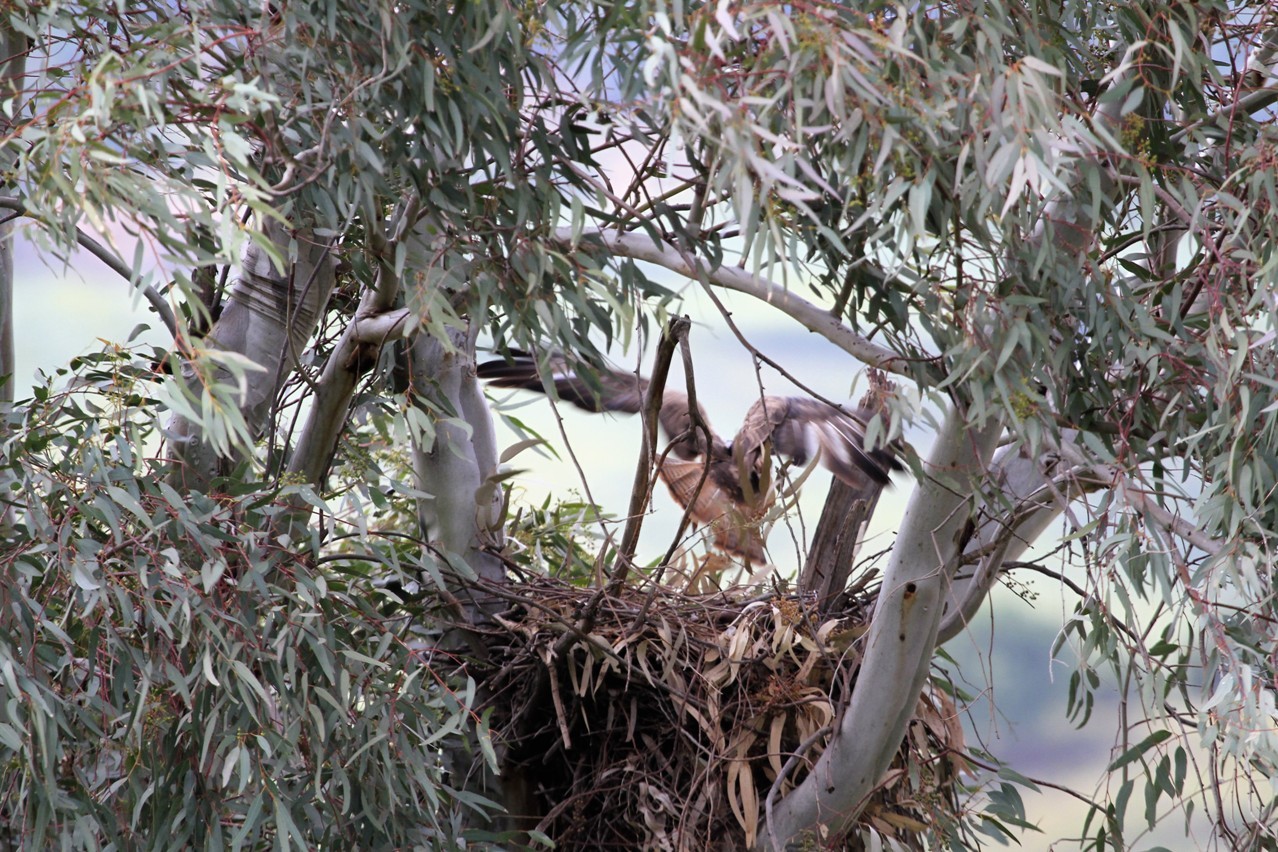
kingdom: Animalia
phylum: Chordata
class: Aves
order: Accipitriformes
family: Accipitridae
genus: Buteo
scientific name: Buteo rufinus
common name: Long-legged buzzard
